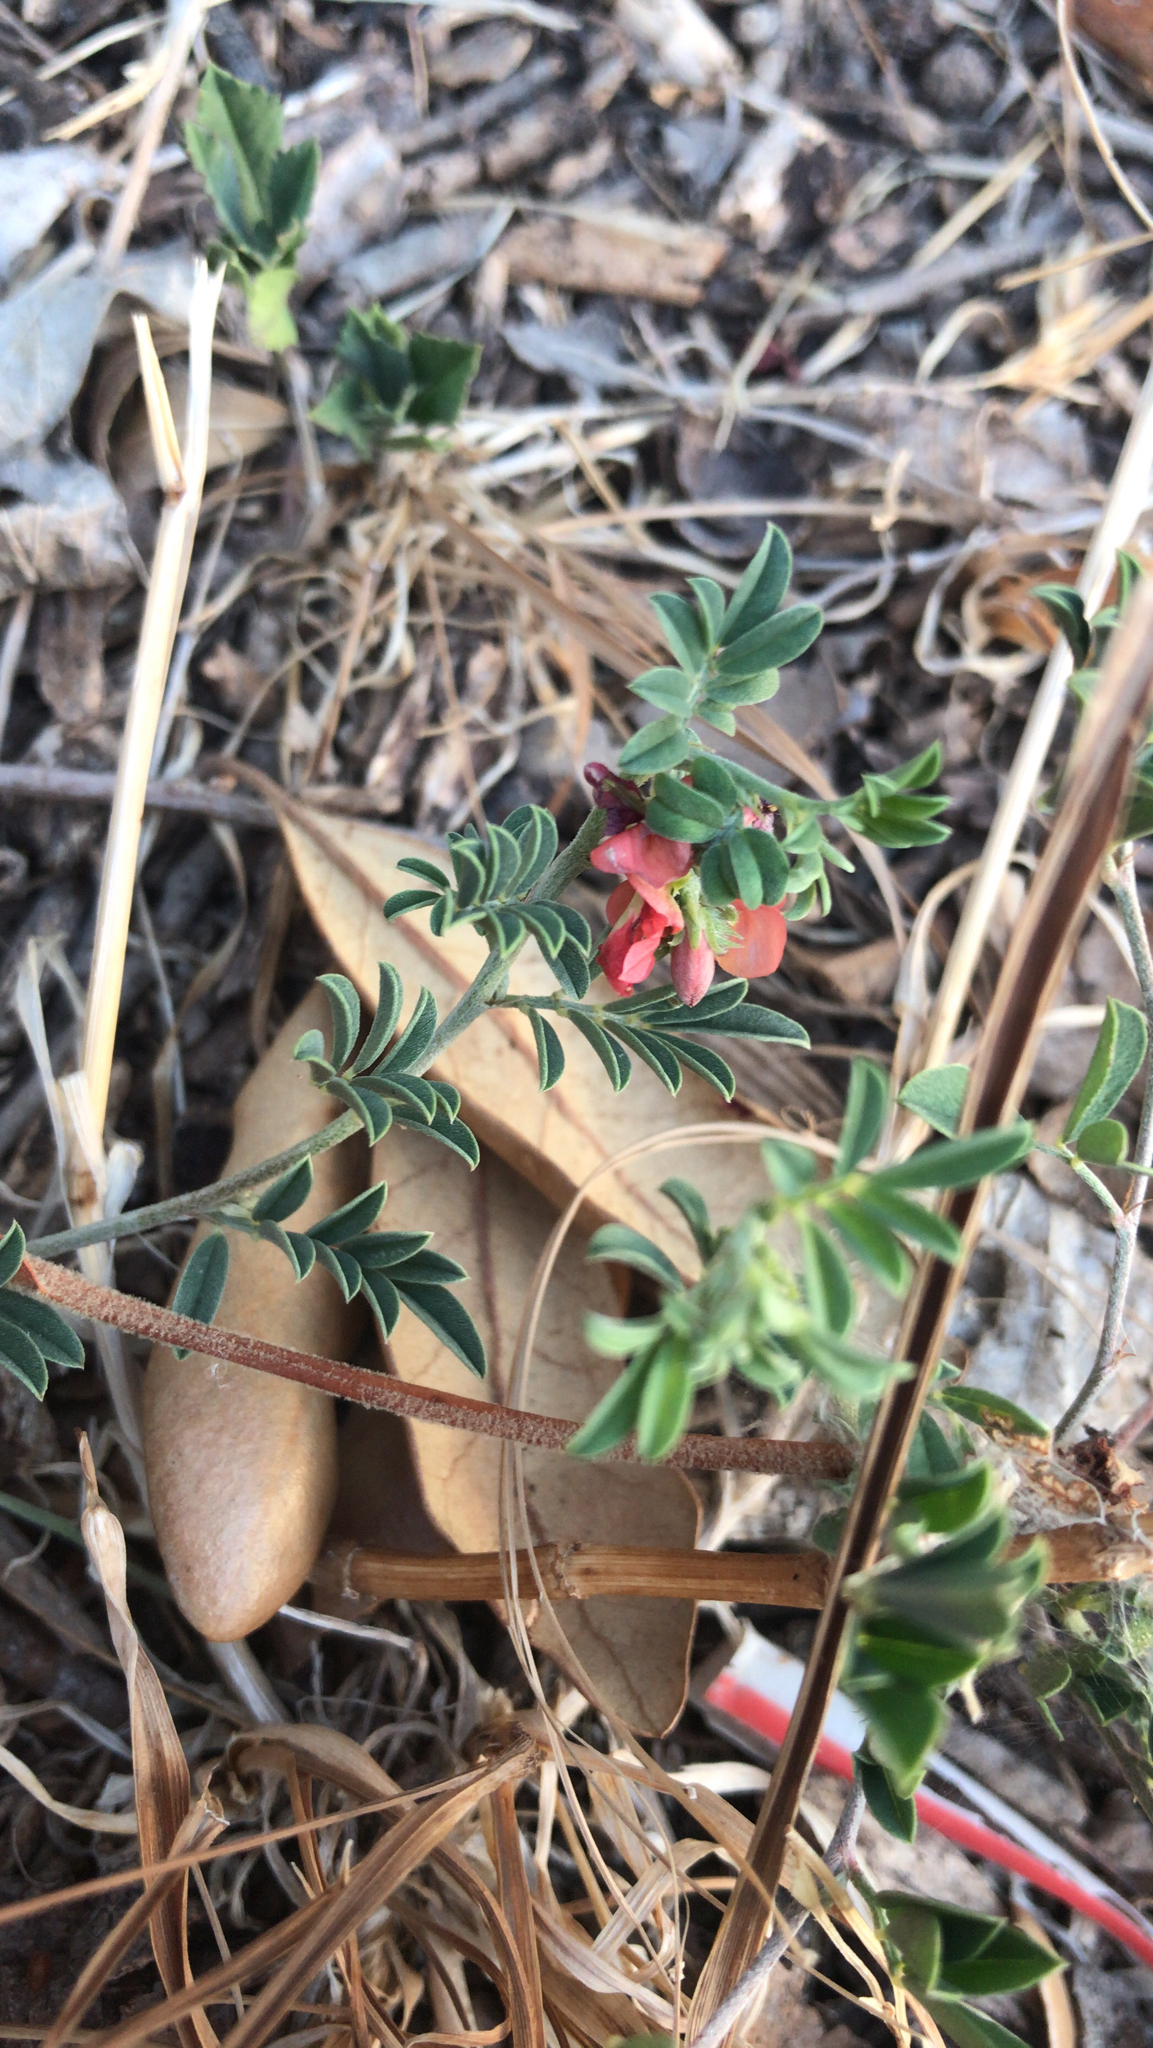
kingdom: Plantae
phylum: Tracheophyta
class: Magnoliopsida
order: Fabales
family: Fabaceae
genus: Indigofera
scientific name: Indigofera miniata
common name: Coast indigo
